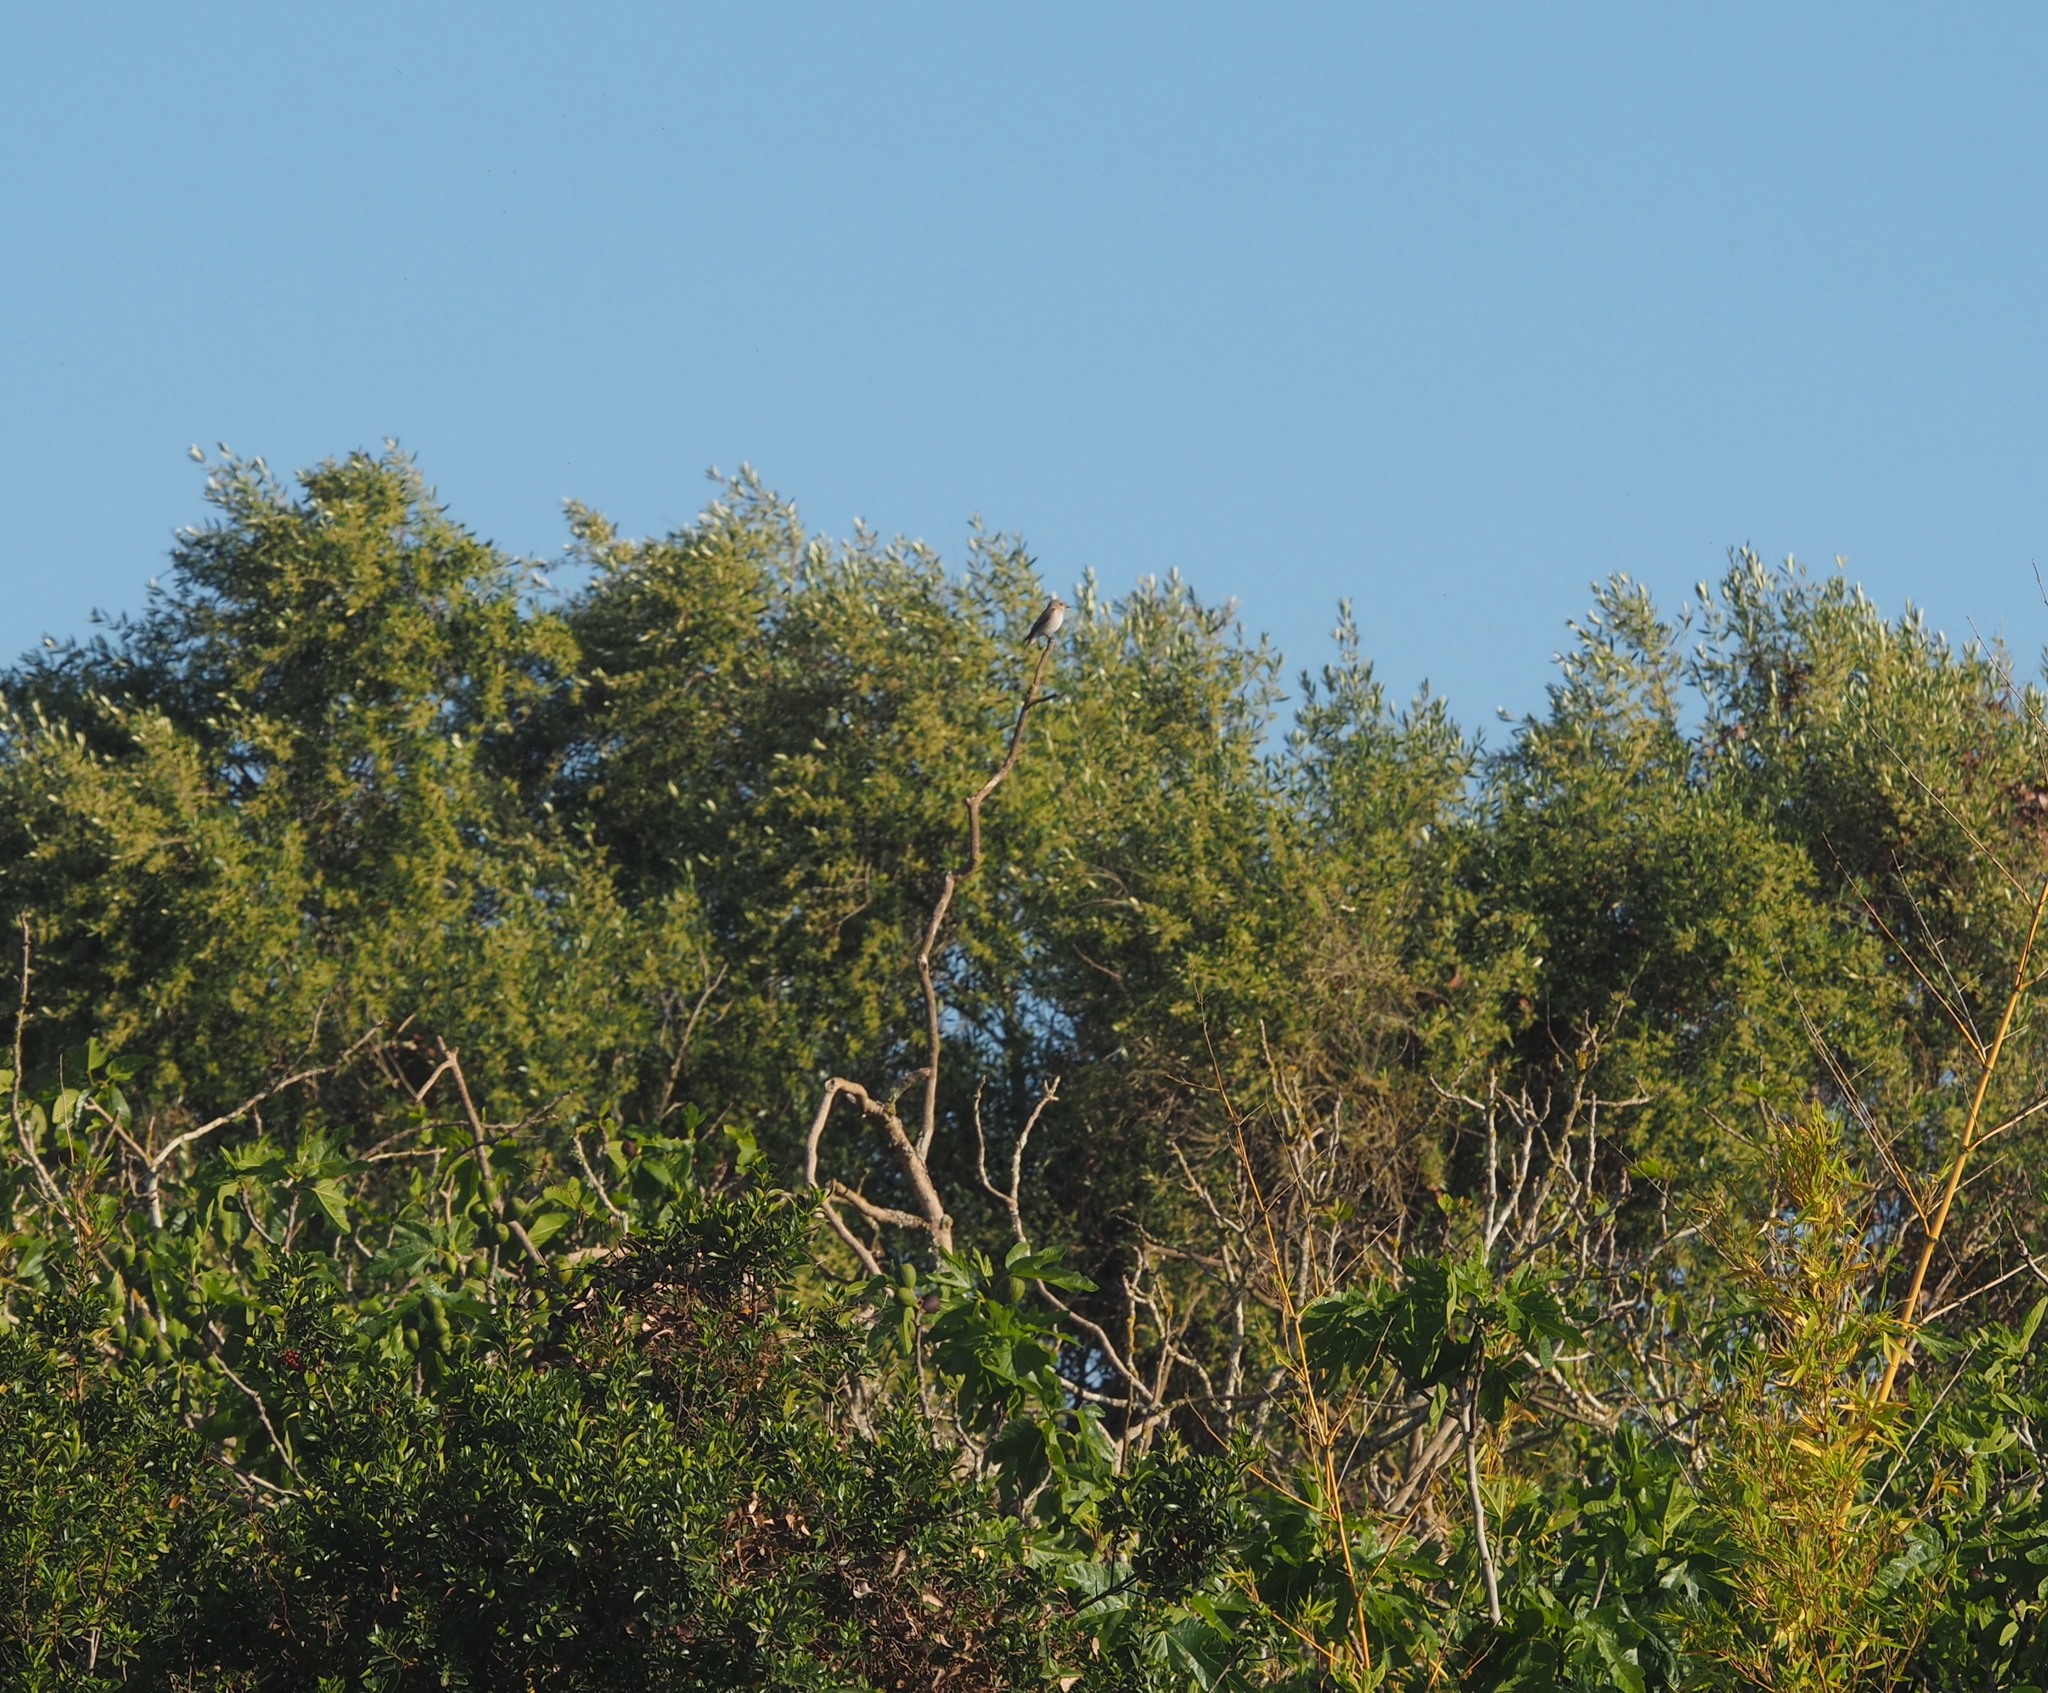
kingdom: Animalia
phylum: Chordata
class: Aves
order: Passeriformes
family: Muscicapidae
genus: Muscicapa
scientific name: Muscicapa striata
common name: Spotted flycatcher
